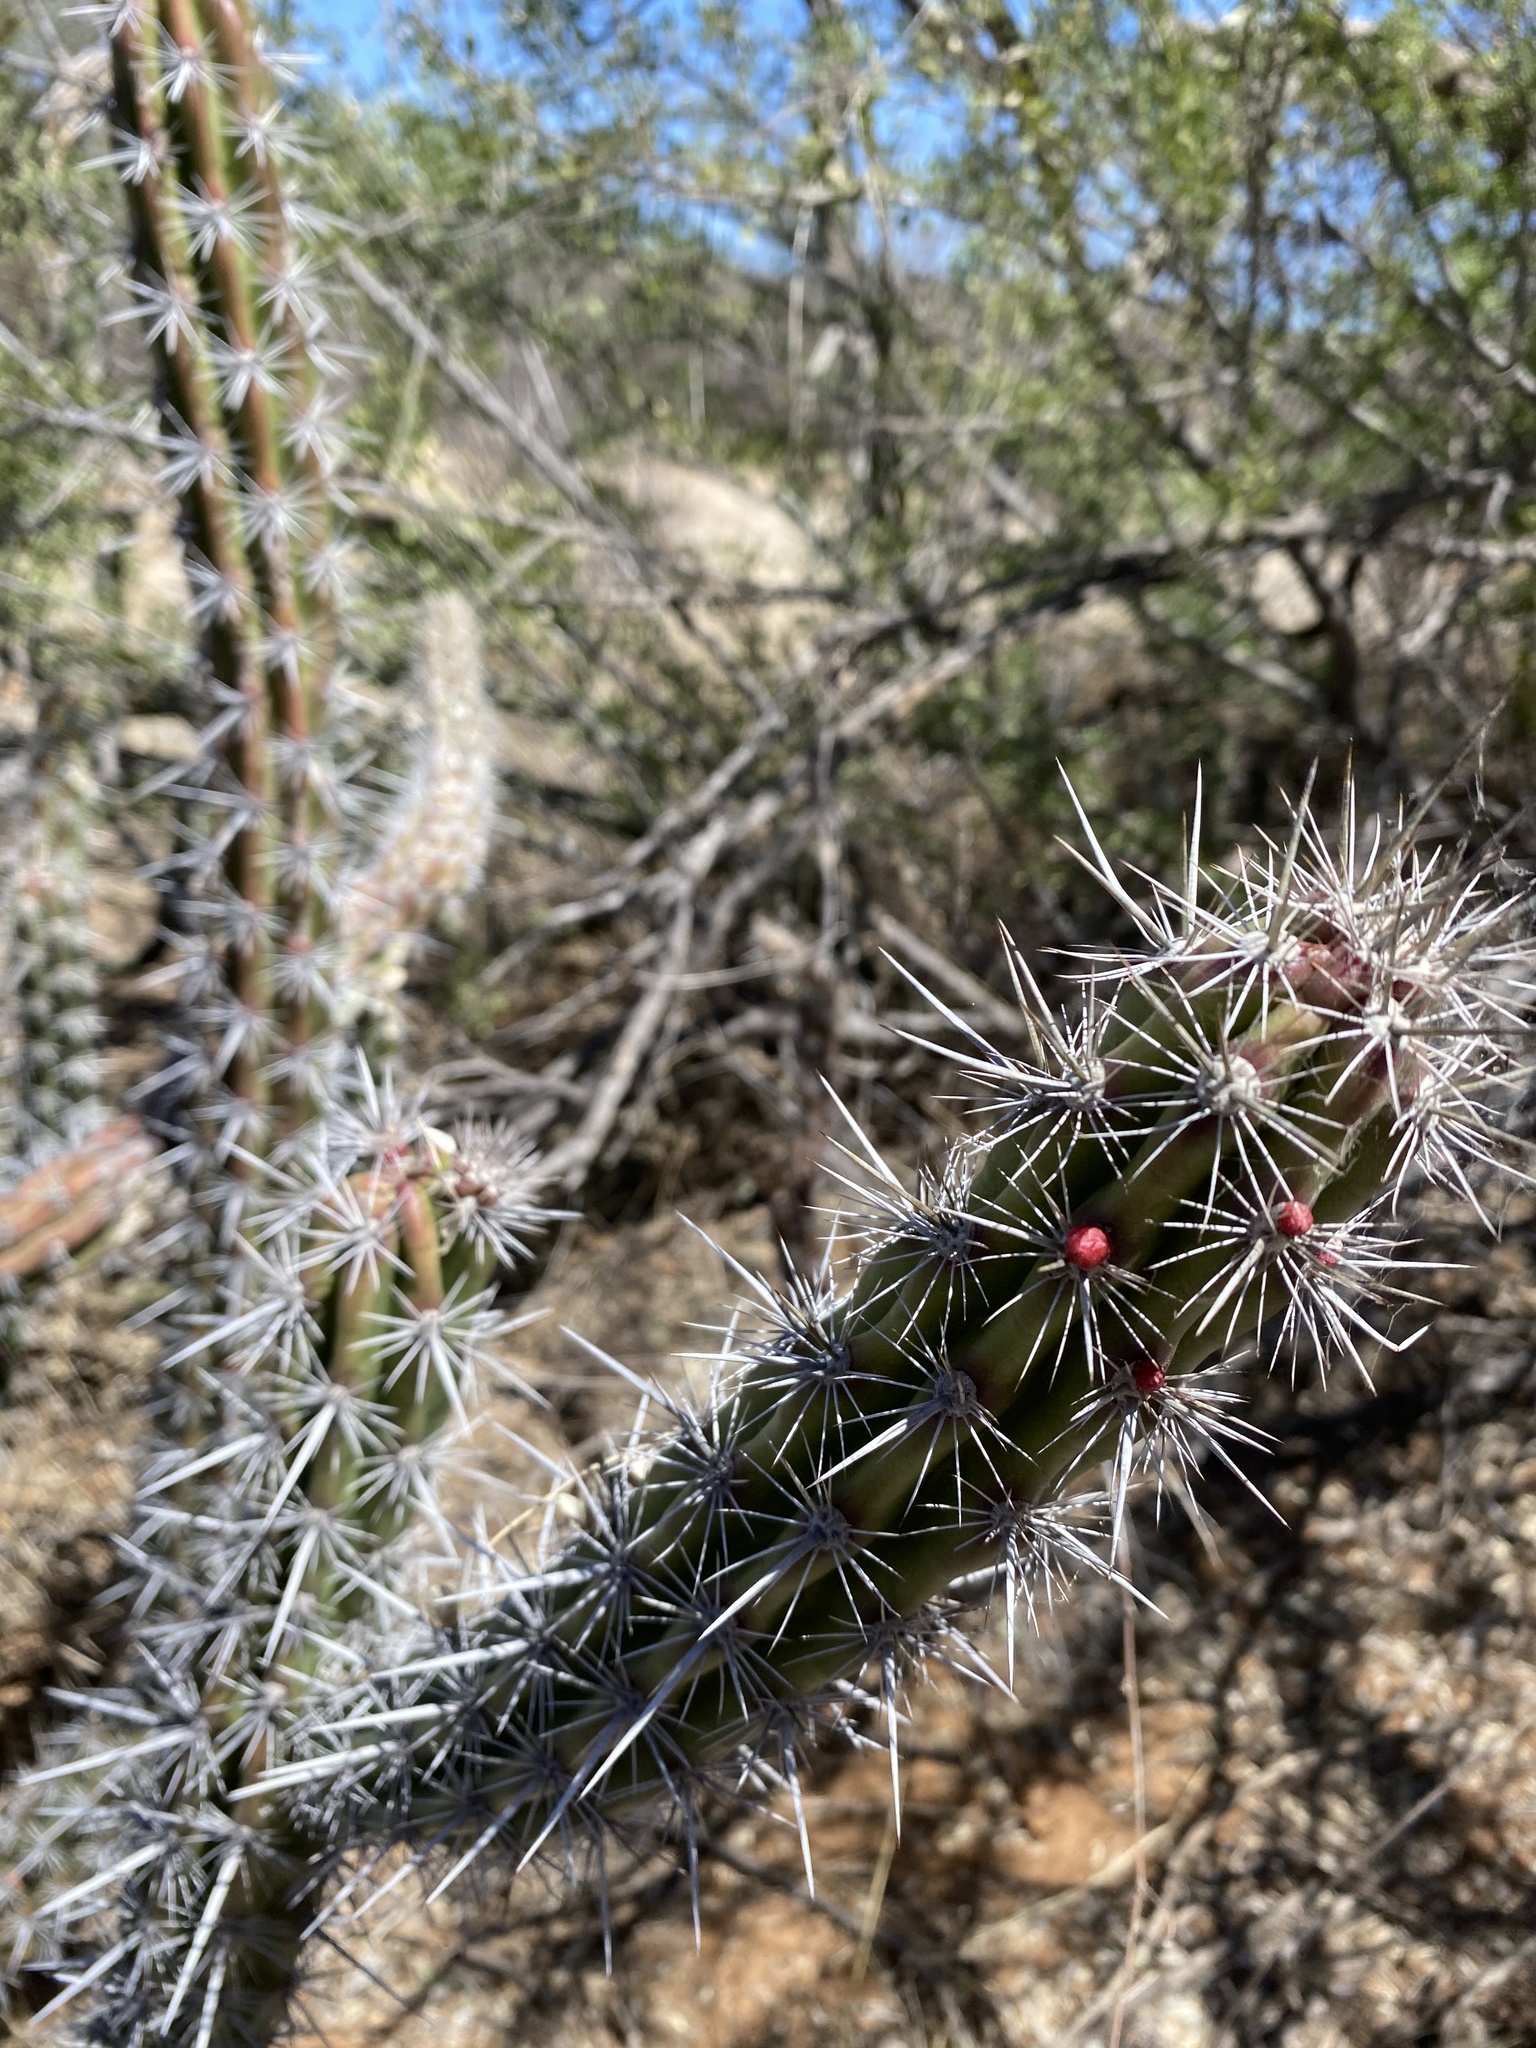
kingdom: Plantae
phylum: Tracheophyta
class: Magnoliopsida
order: Caryophyllales
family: Cactaceae
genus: Stenocereus
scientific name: Stenocereus alamosensis
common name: Octopus cactus
